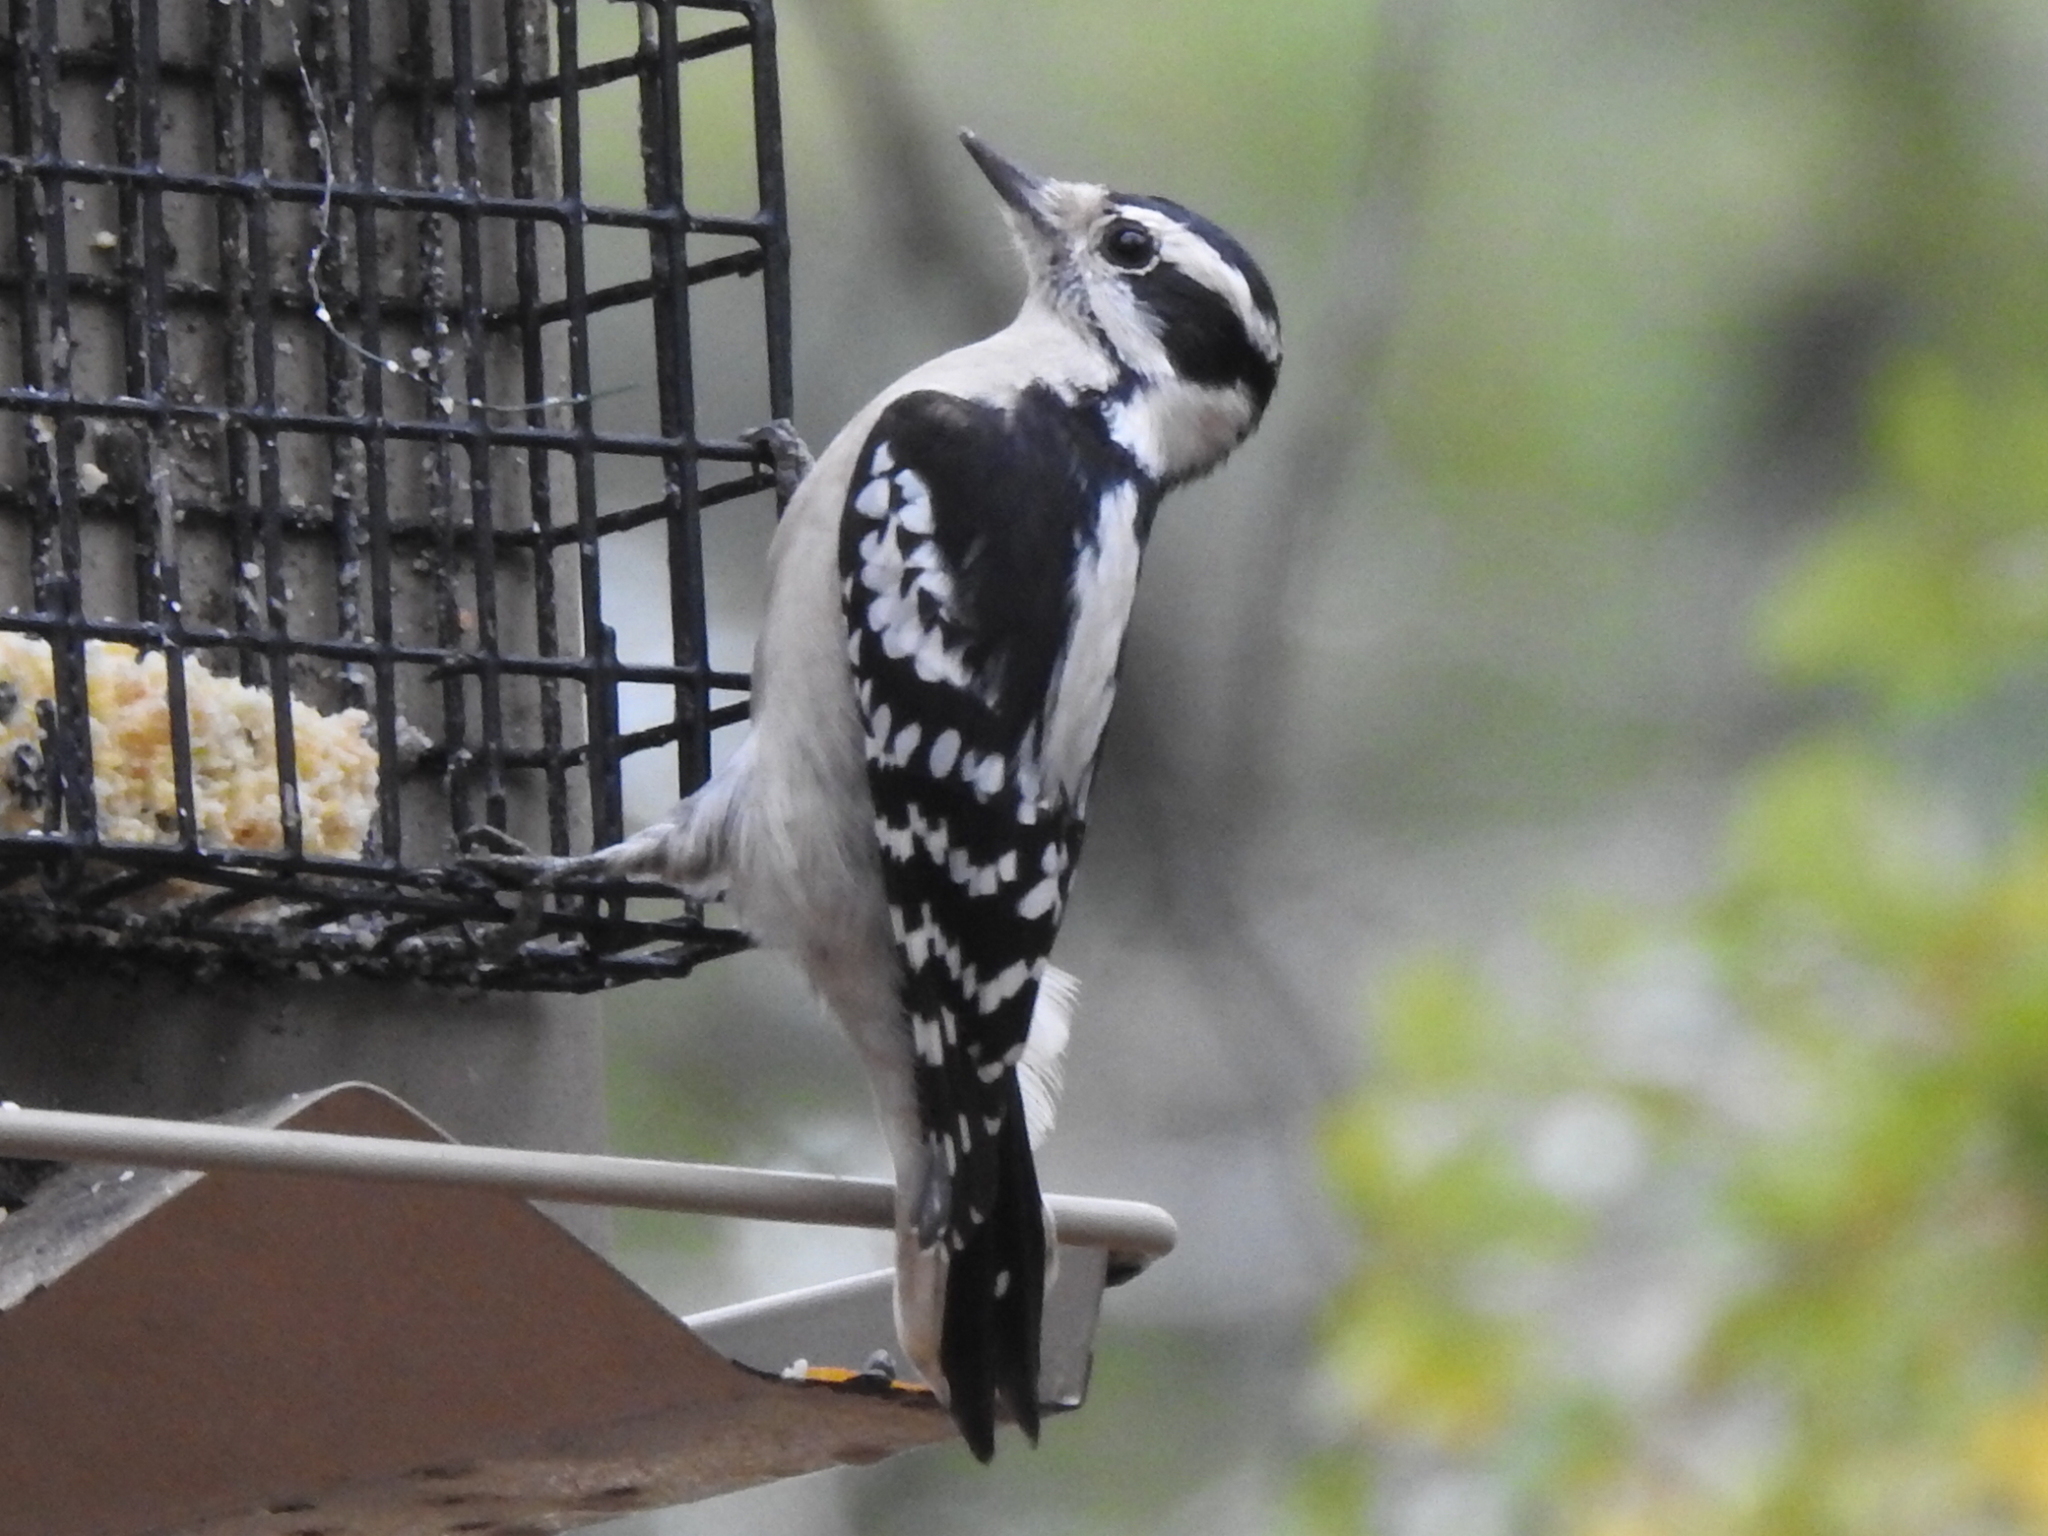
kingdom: Animalia
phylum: Chordata
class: Aves
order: Piciformes
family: Picidae
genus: Dryobates
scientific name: Dryobates pubescens
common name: Downy woodpecker
